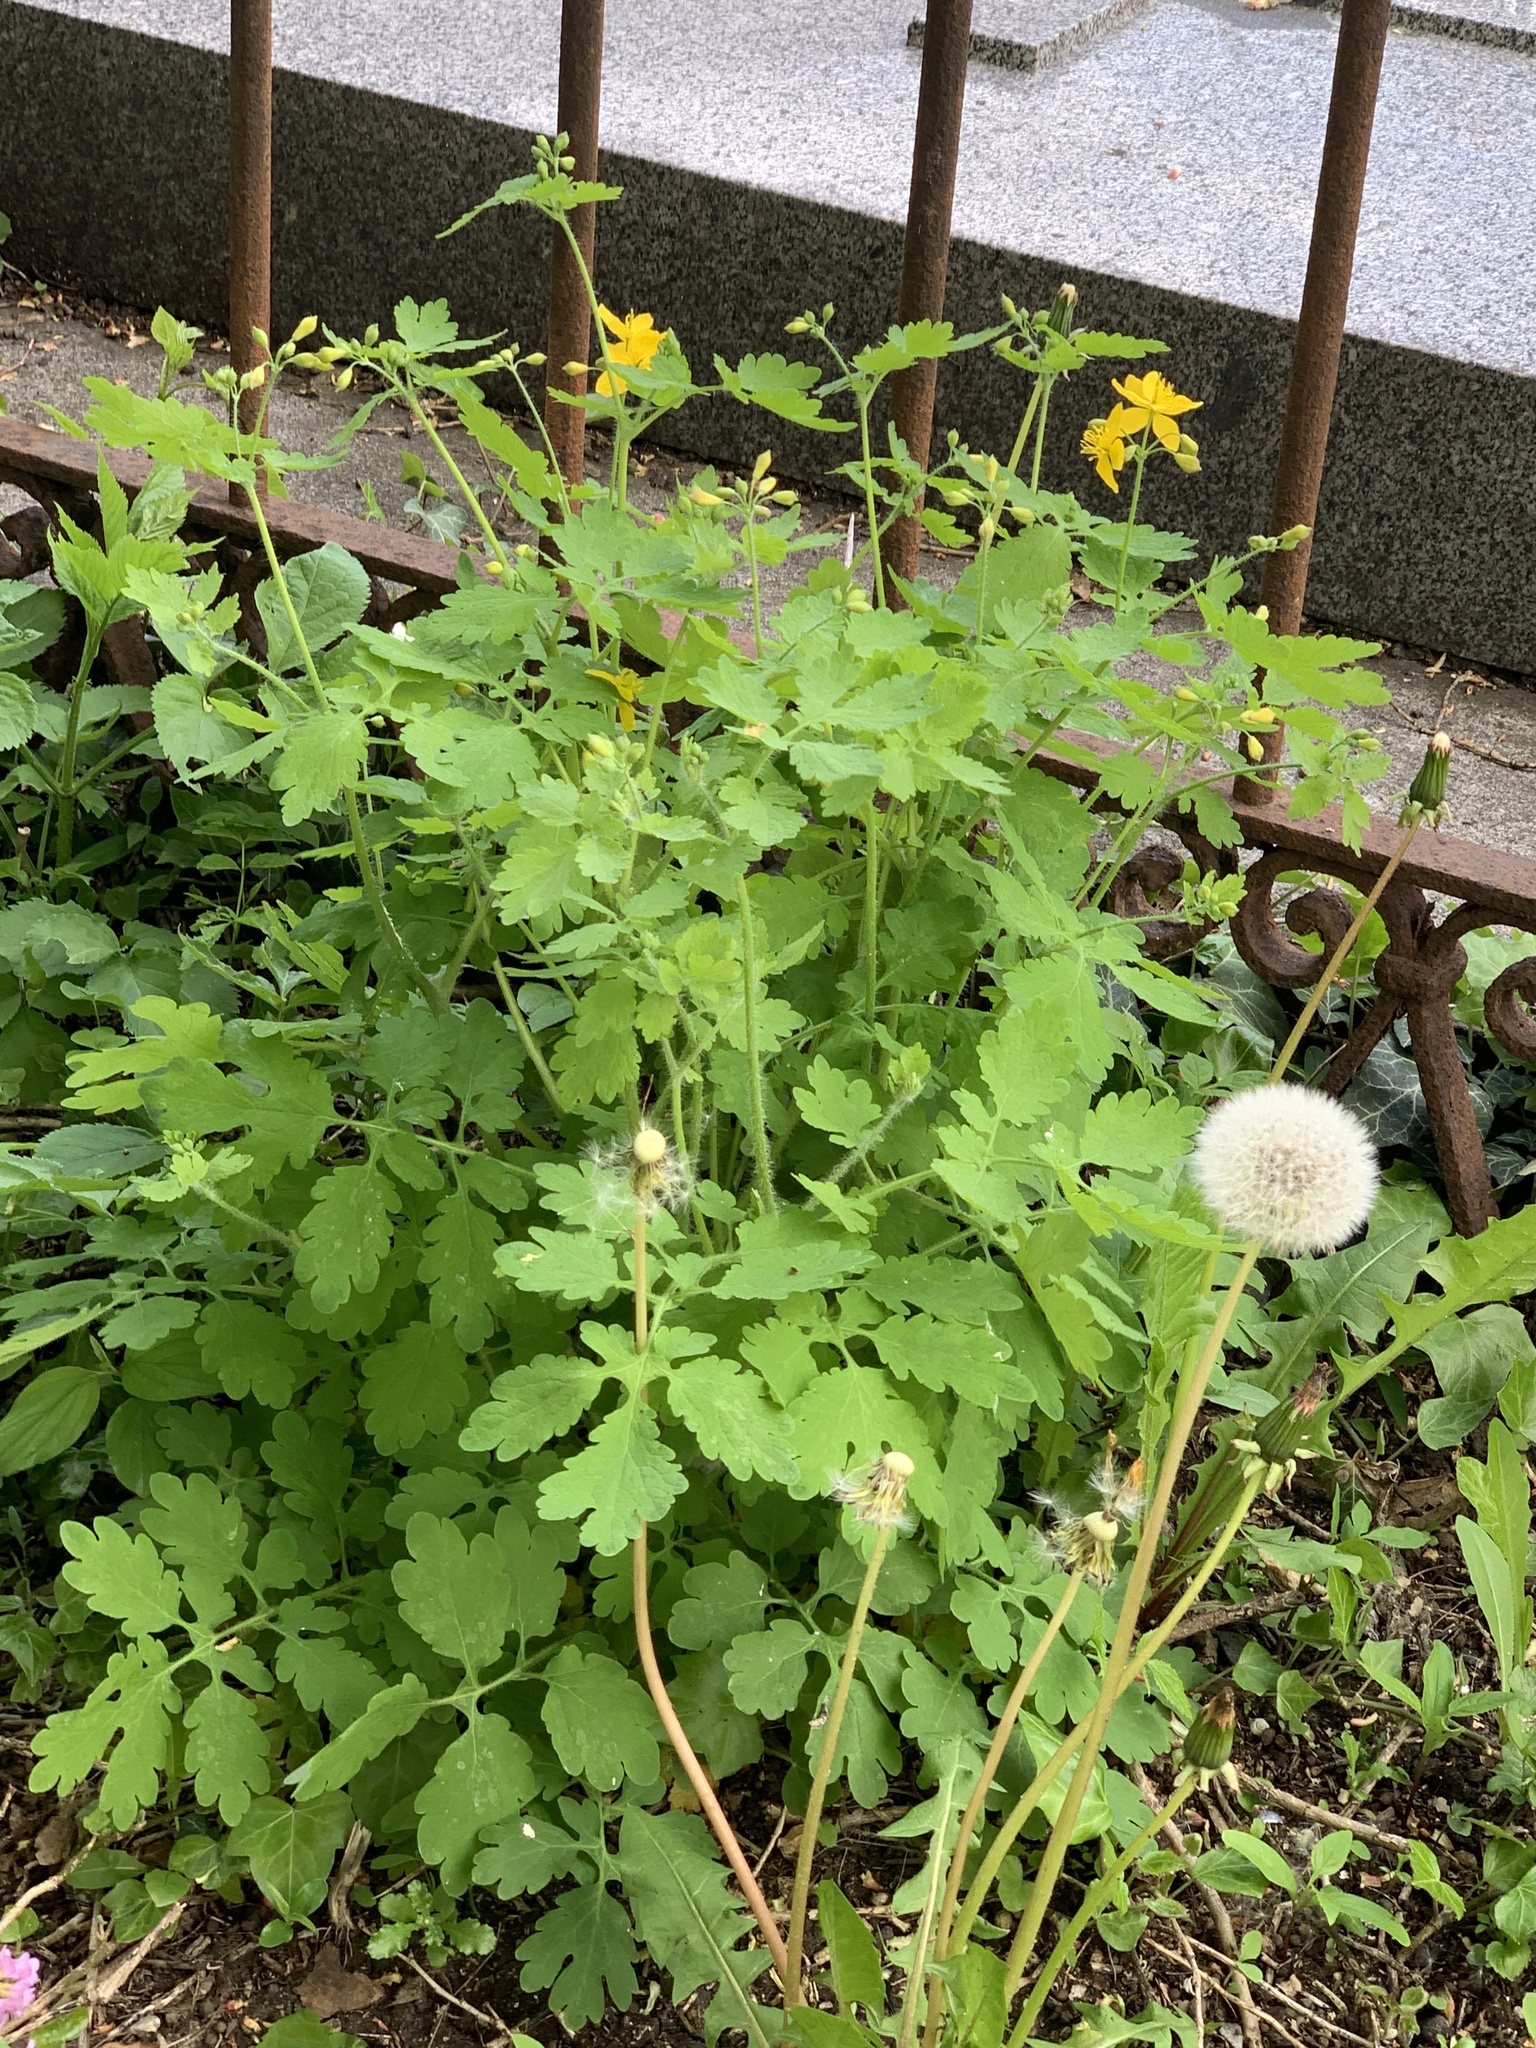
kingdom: Plantae
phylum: Tracheophyta
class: Magnoliopsida
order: Ranunculales
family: Papaveraceae
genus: Chelidonium
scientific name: Chelidonium majus
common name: Greater celandine
